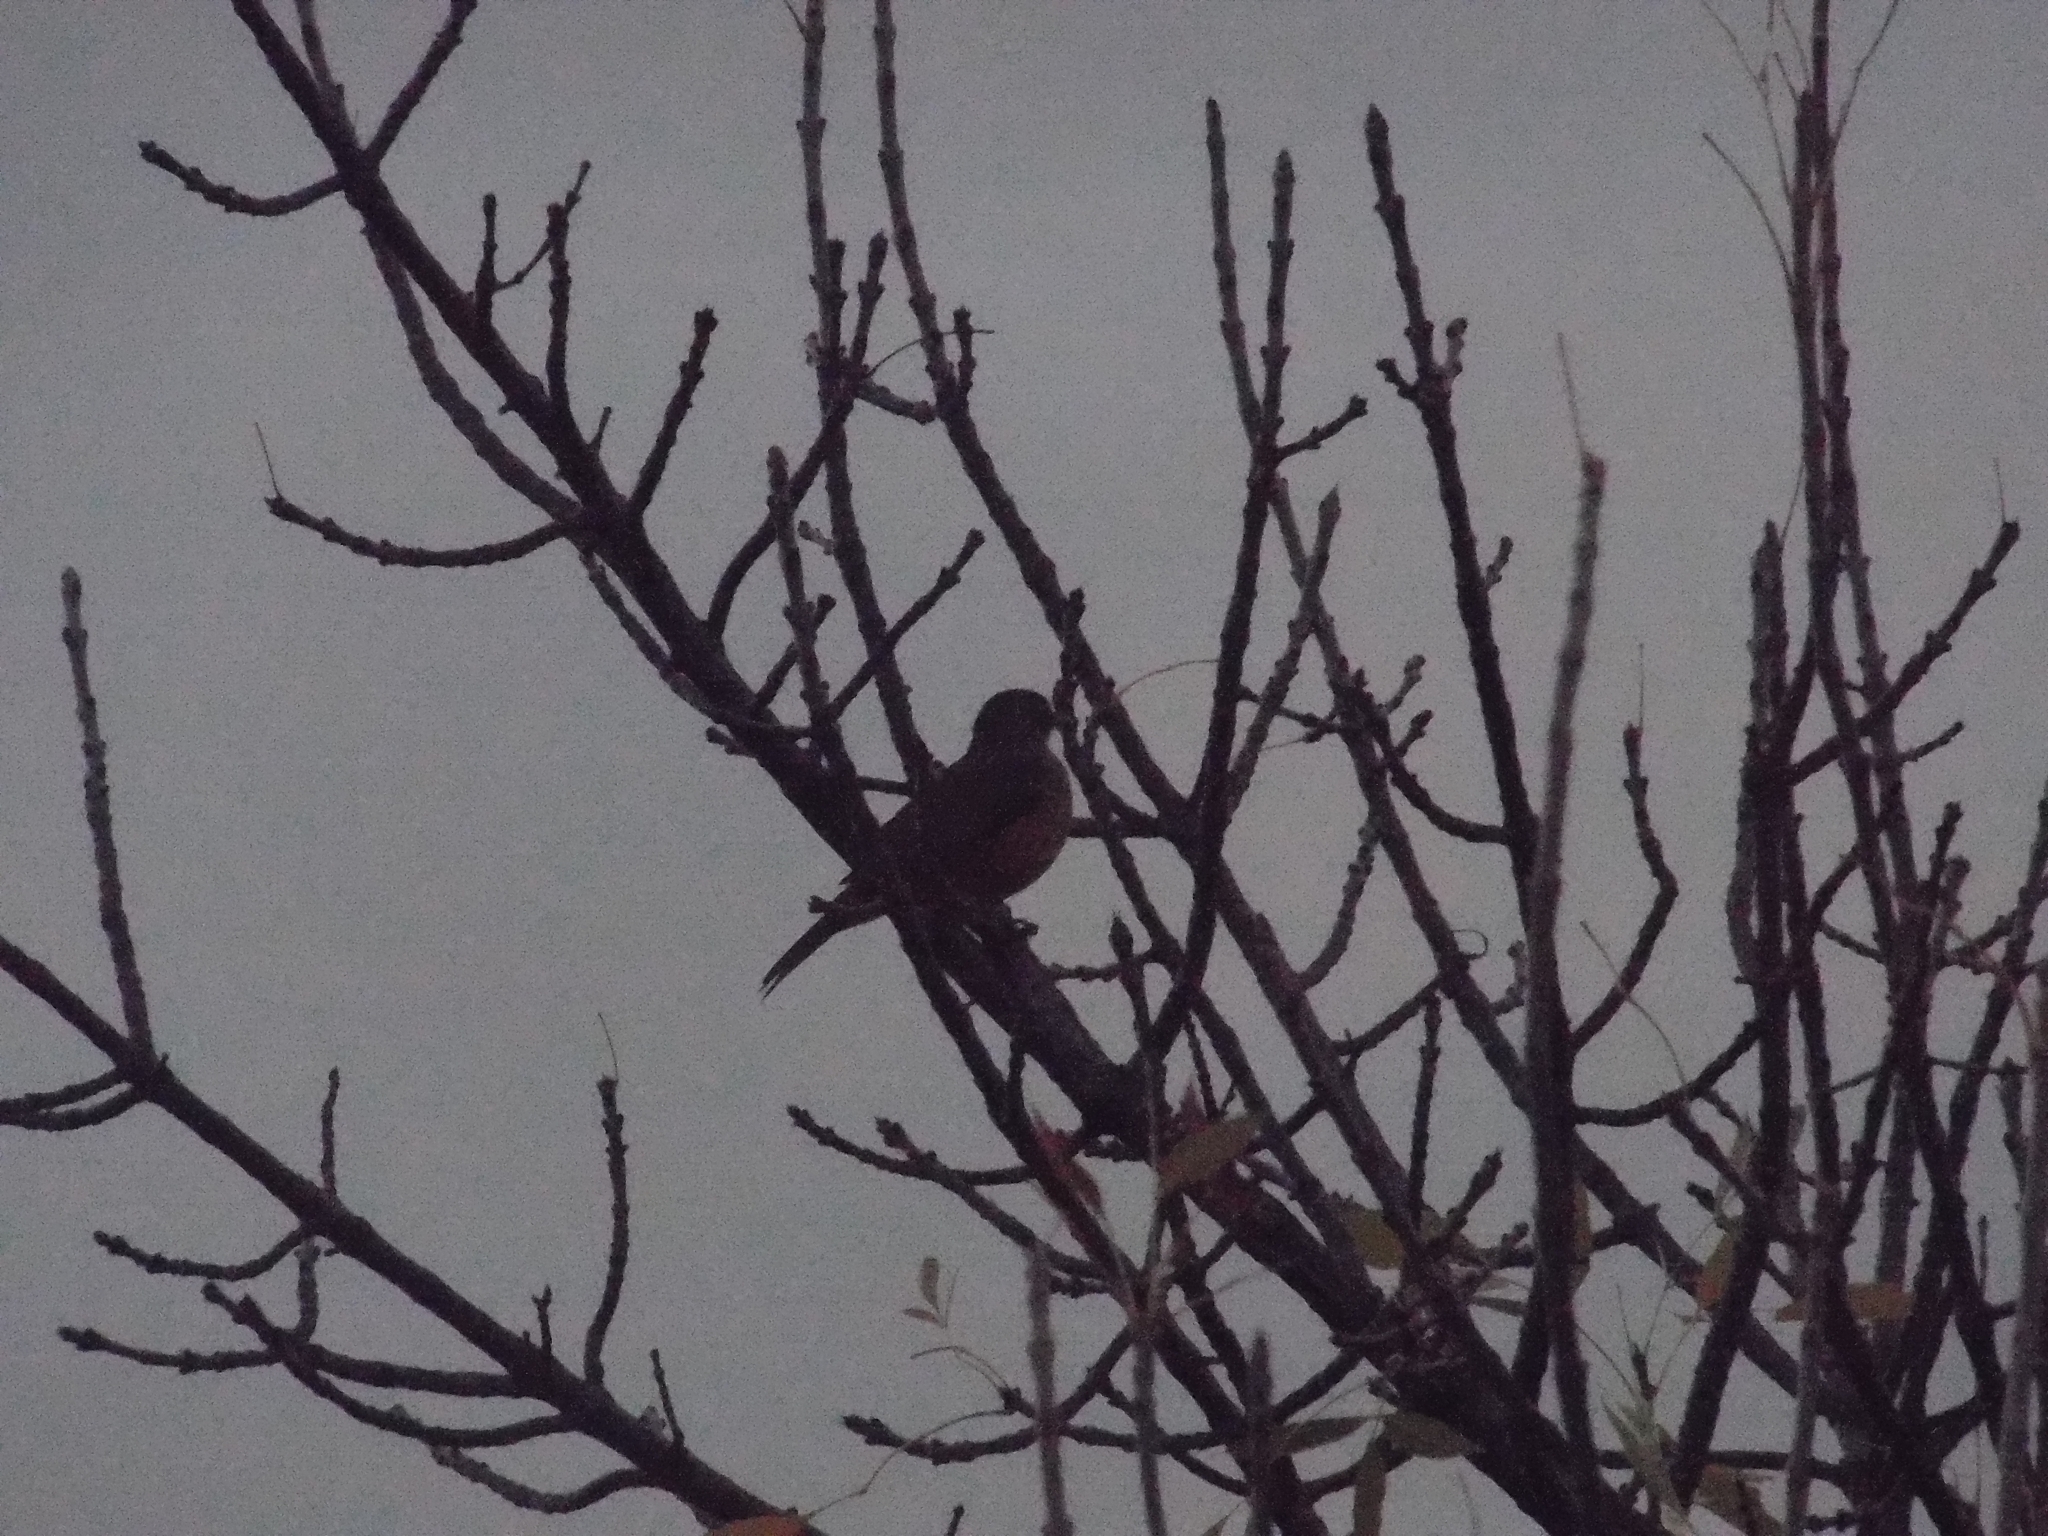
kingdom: Animalia
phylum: Chordata
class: Aves
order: Passeriformes
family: Turdidae
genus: Turdus
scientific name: Turdus rufiventris
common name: Rufous-bellied thrush
